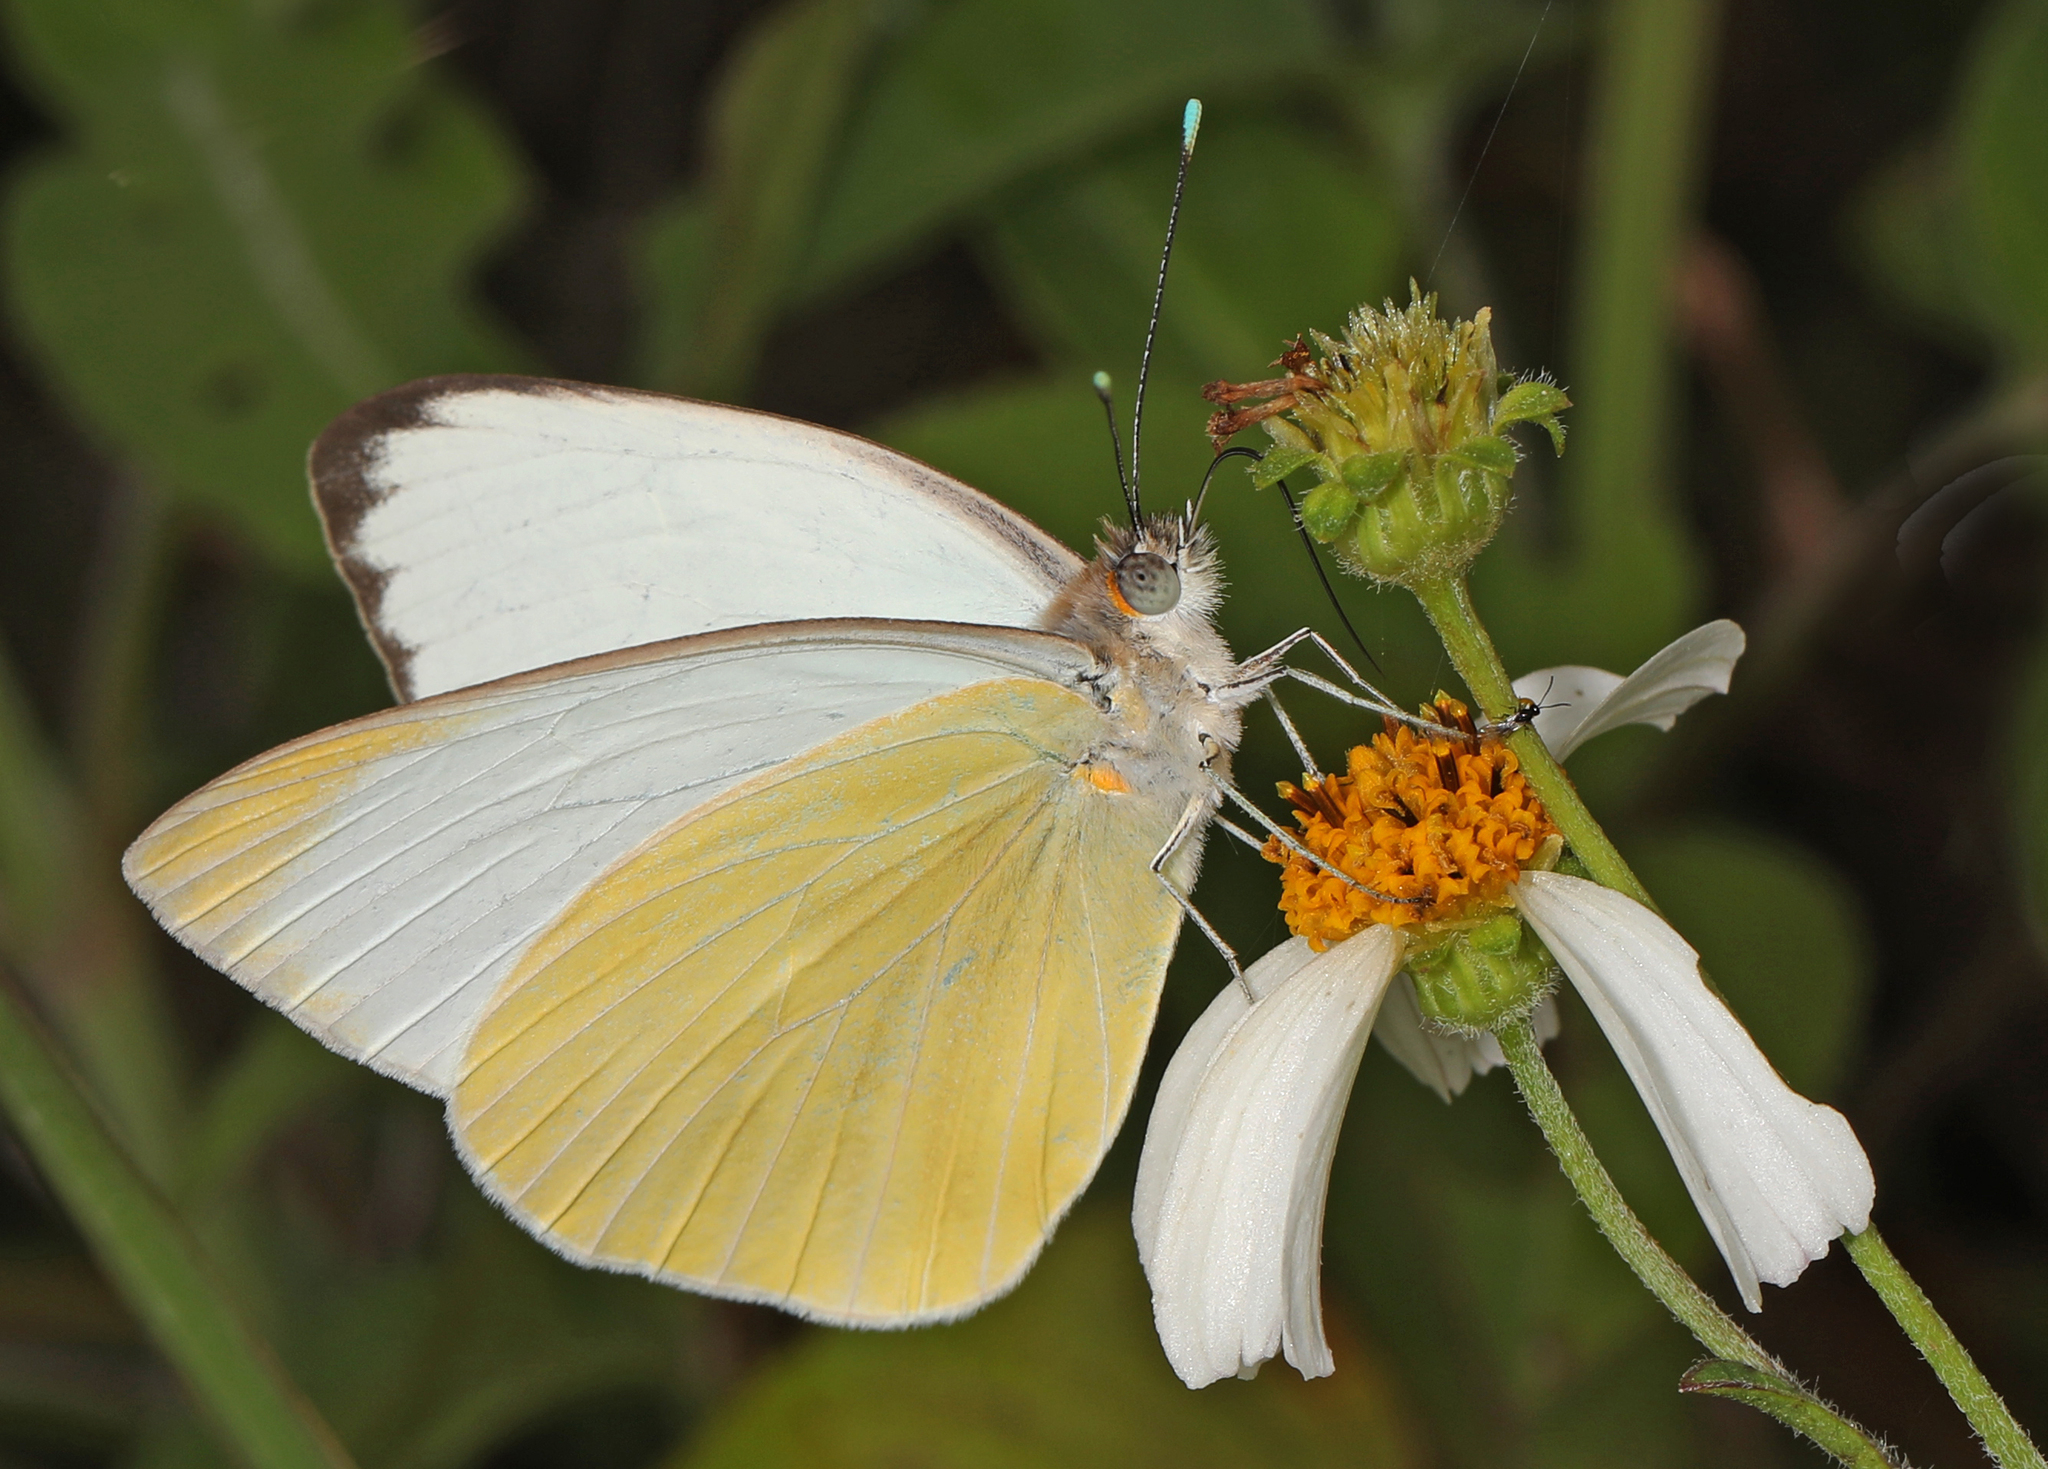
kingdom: Animalia
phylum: Arthropoda
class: Insecta
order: Lepidoptera
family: Pieridae
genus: Ascia
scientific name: Ascia monuste
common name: Great southern white
